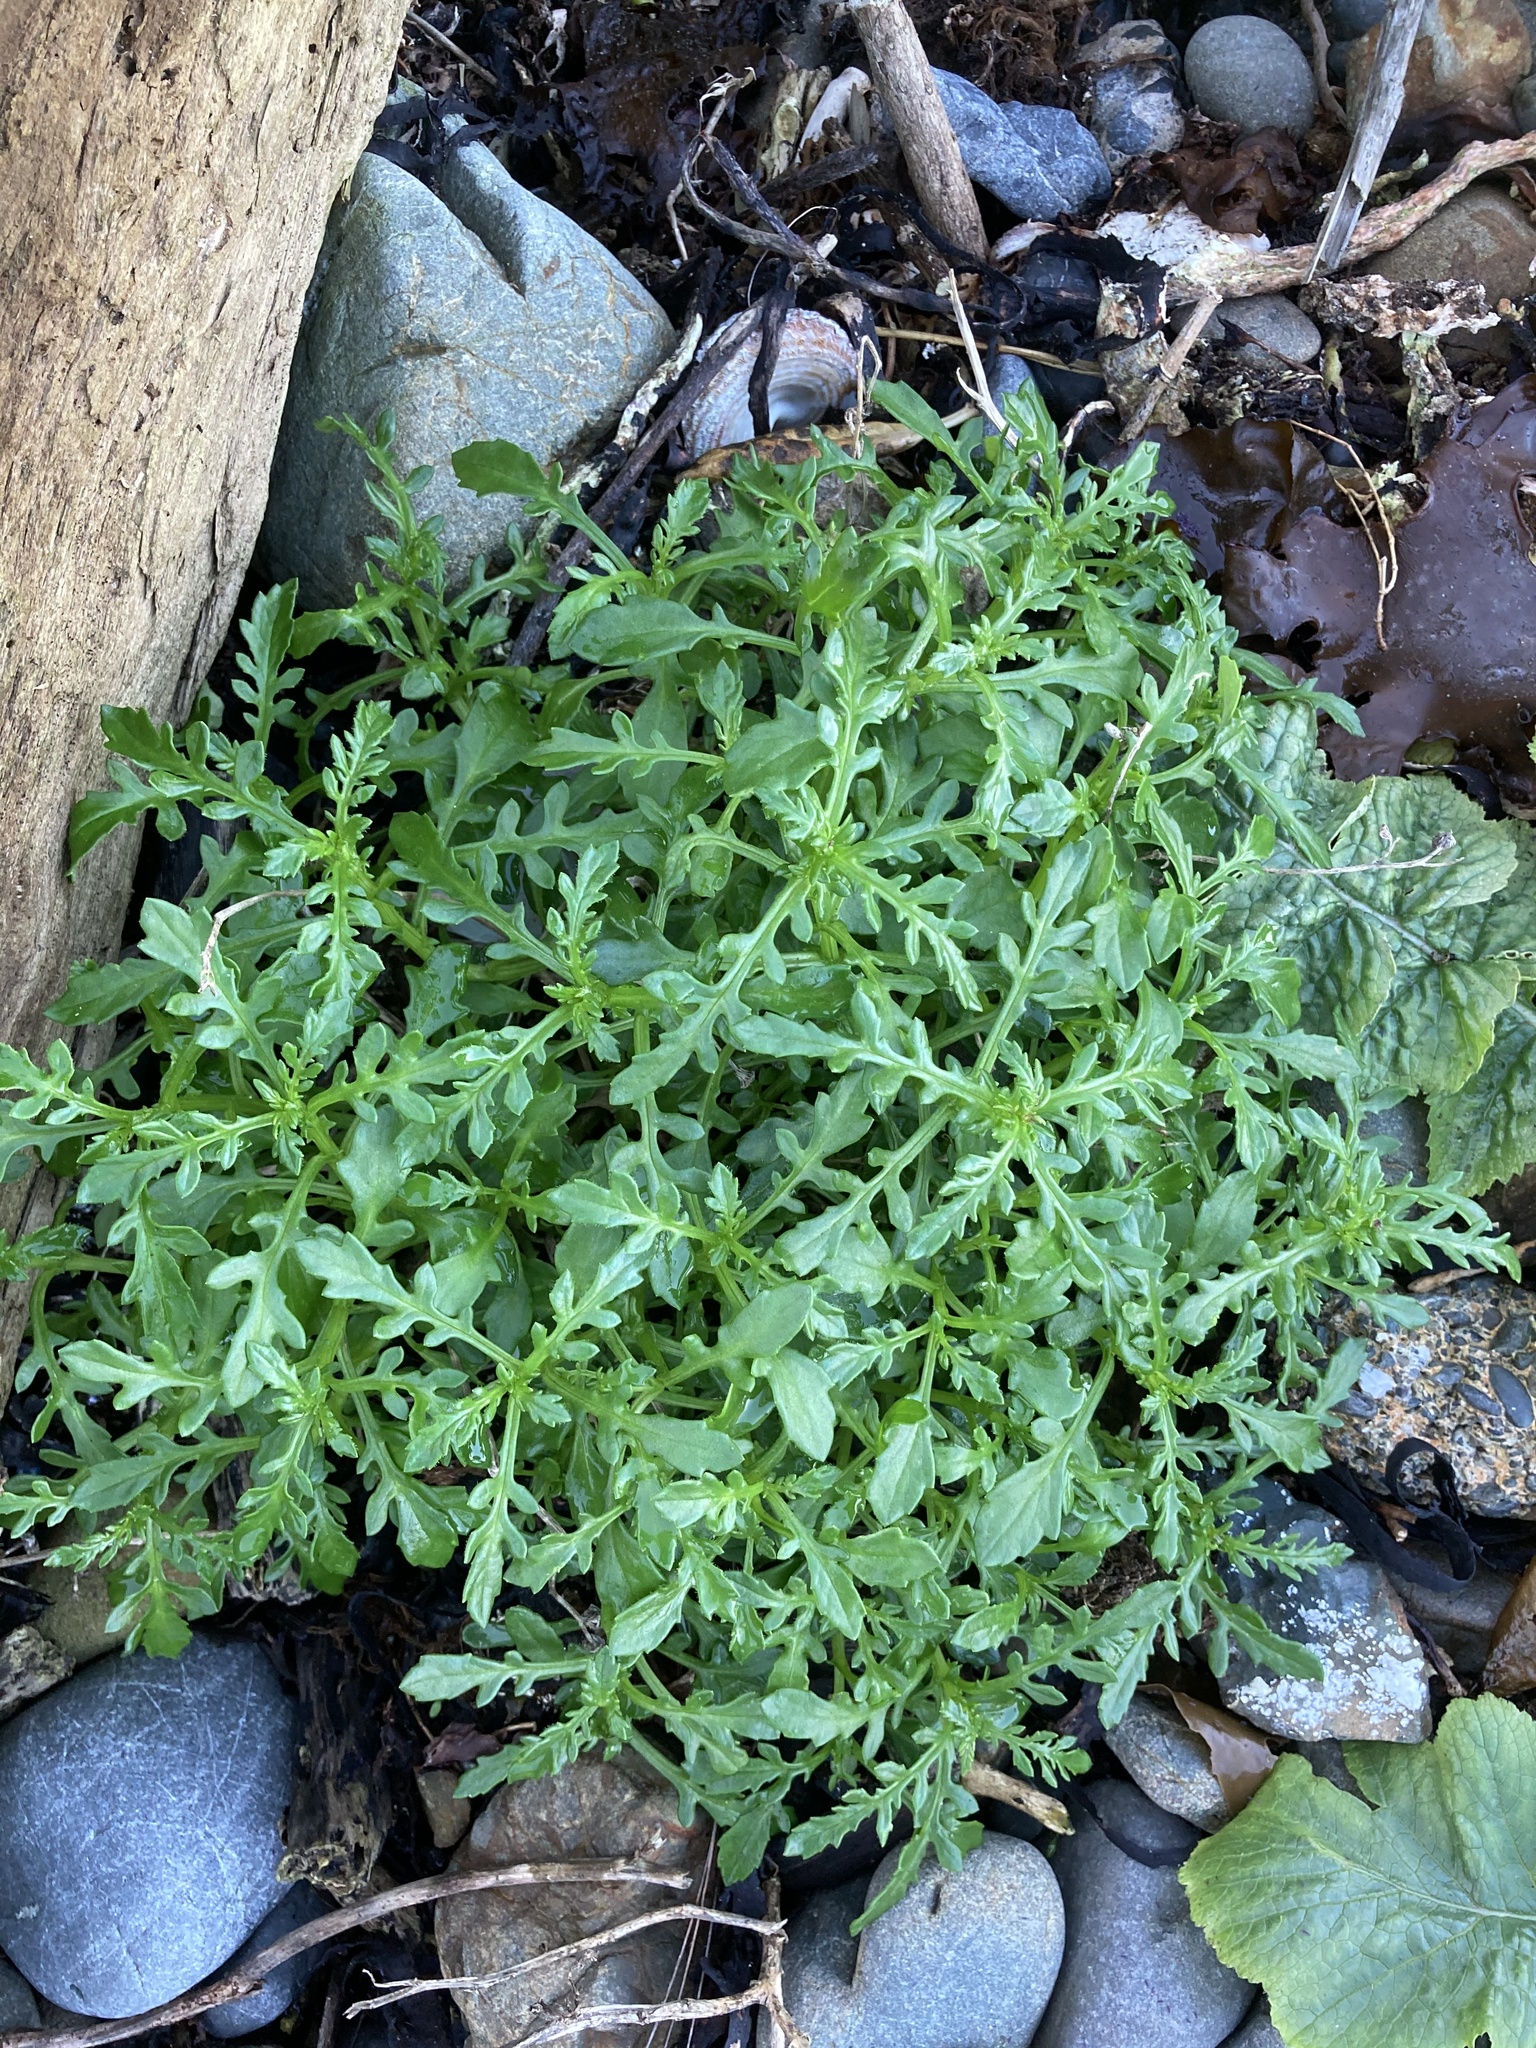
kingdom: Plantae
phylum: Tracheophyta
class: Magnoliopsida
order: Brassicales
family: Brassicaceae
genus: Lepidium
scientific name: Lepidium didymum
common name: Lesser swinecress
